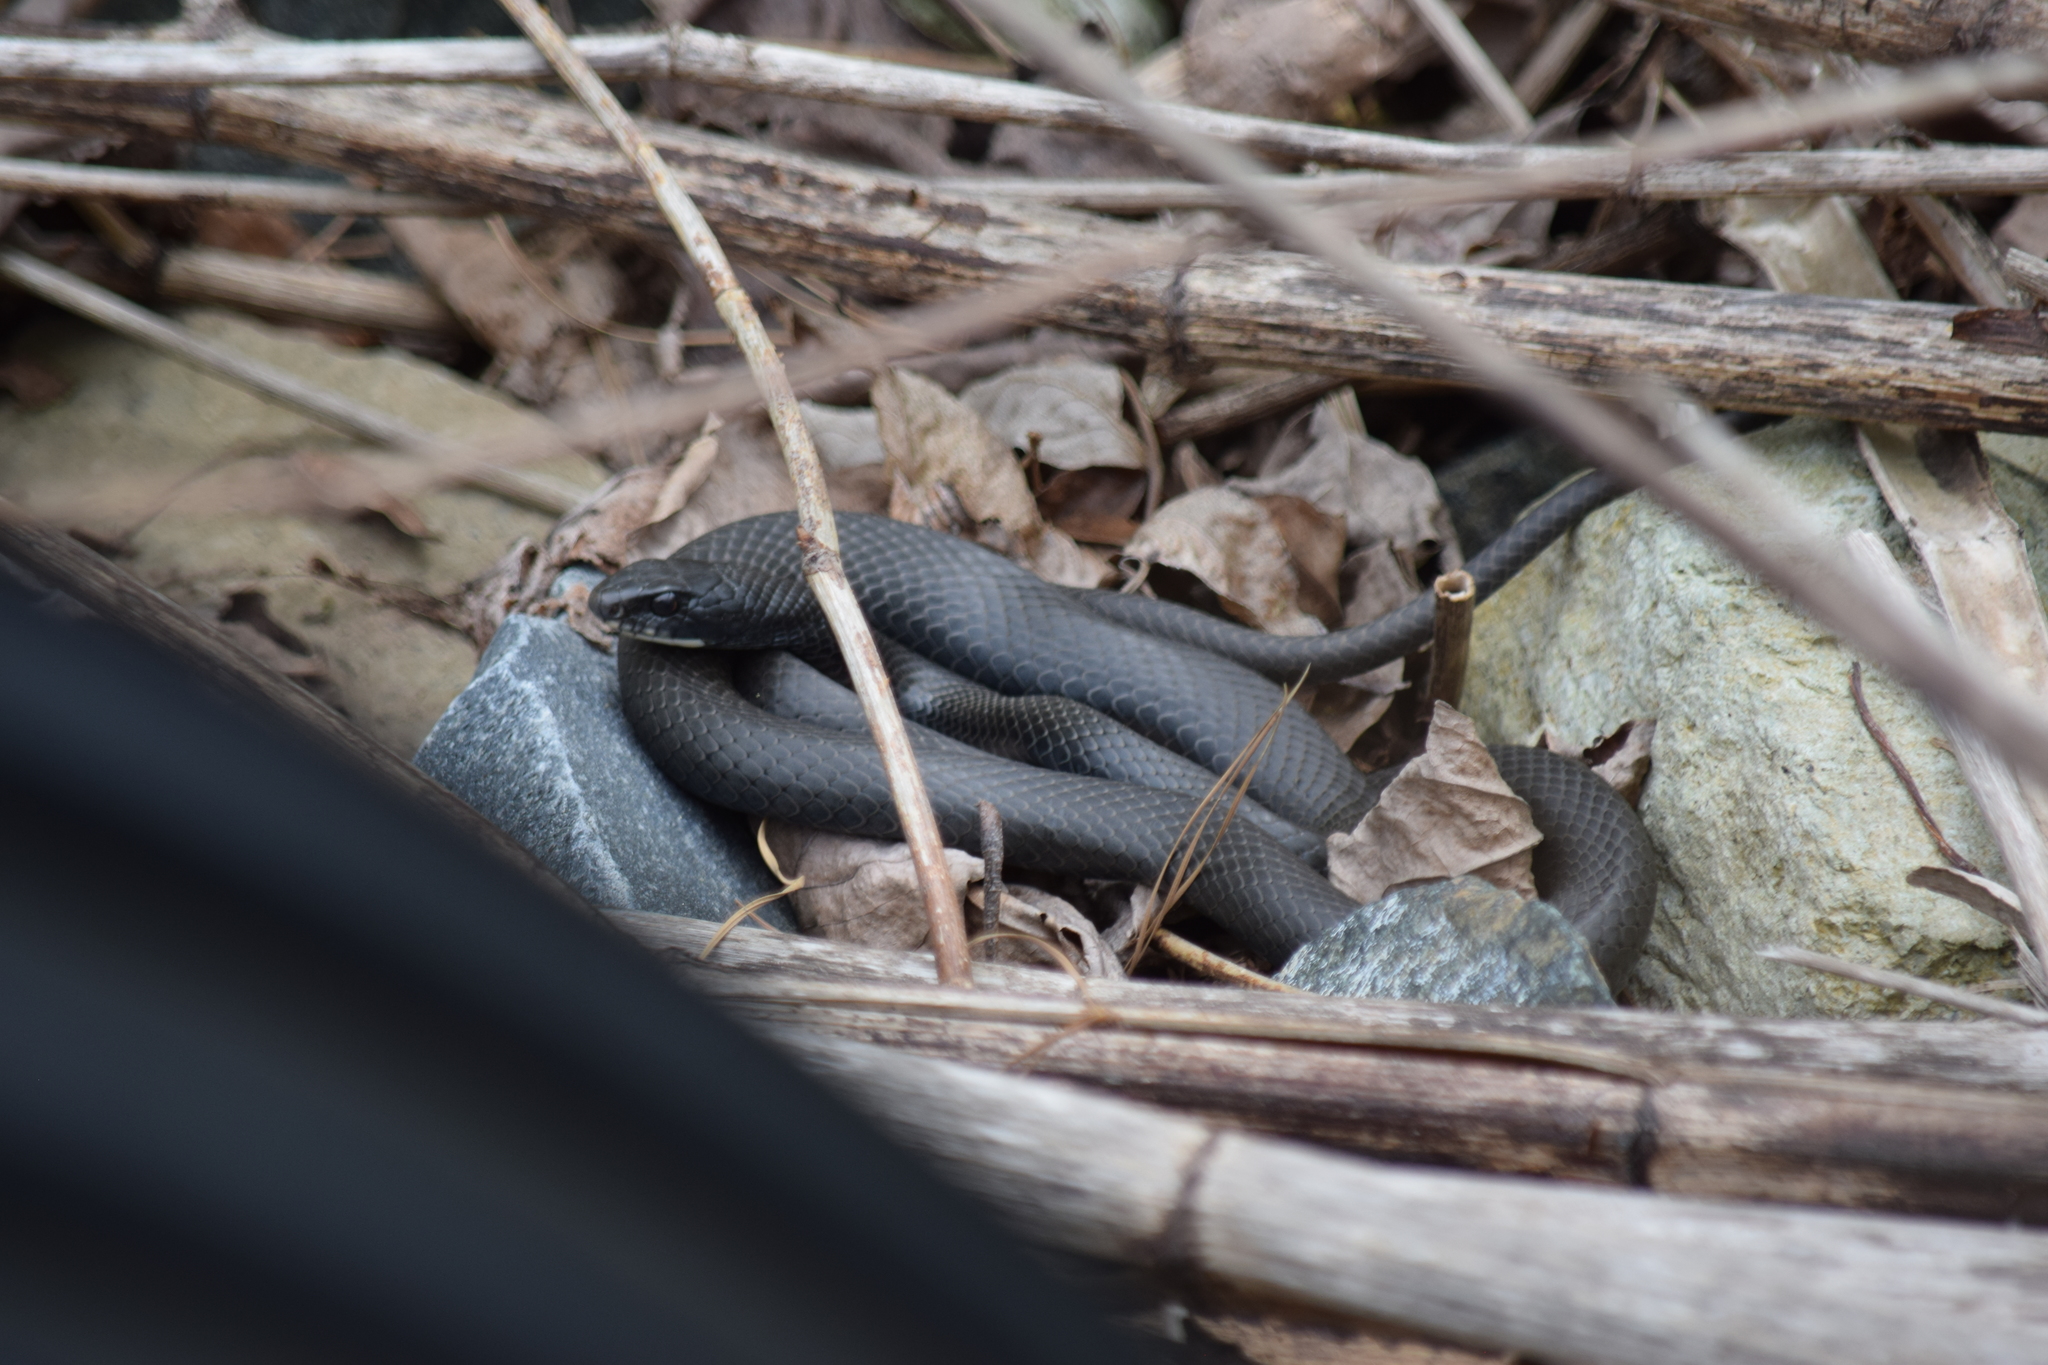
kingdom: Animalia
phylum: Chordata
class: Squamata
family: Colubridae
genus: Coluber
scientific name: Coluber constrictor
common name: Eastern racer
